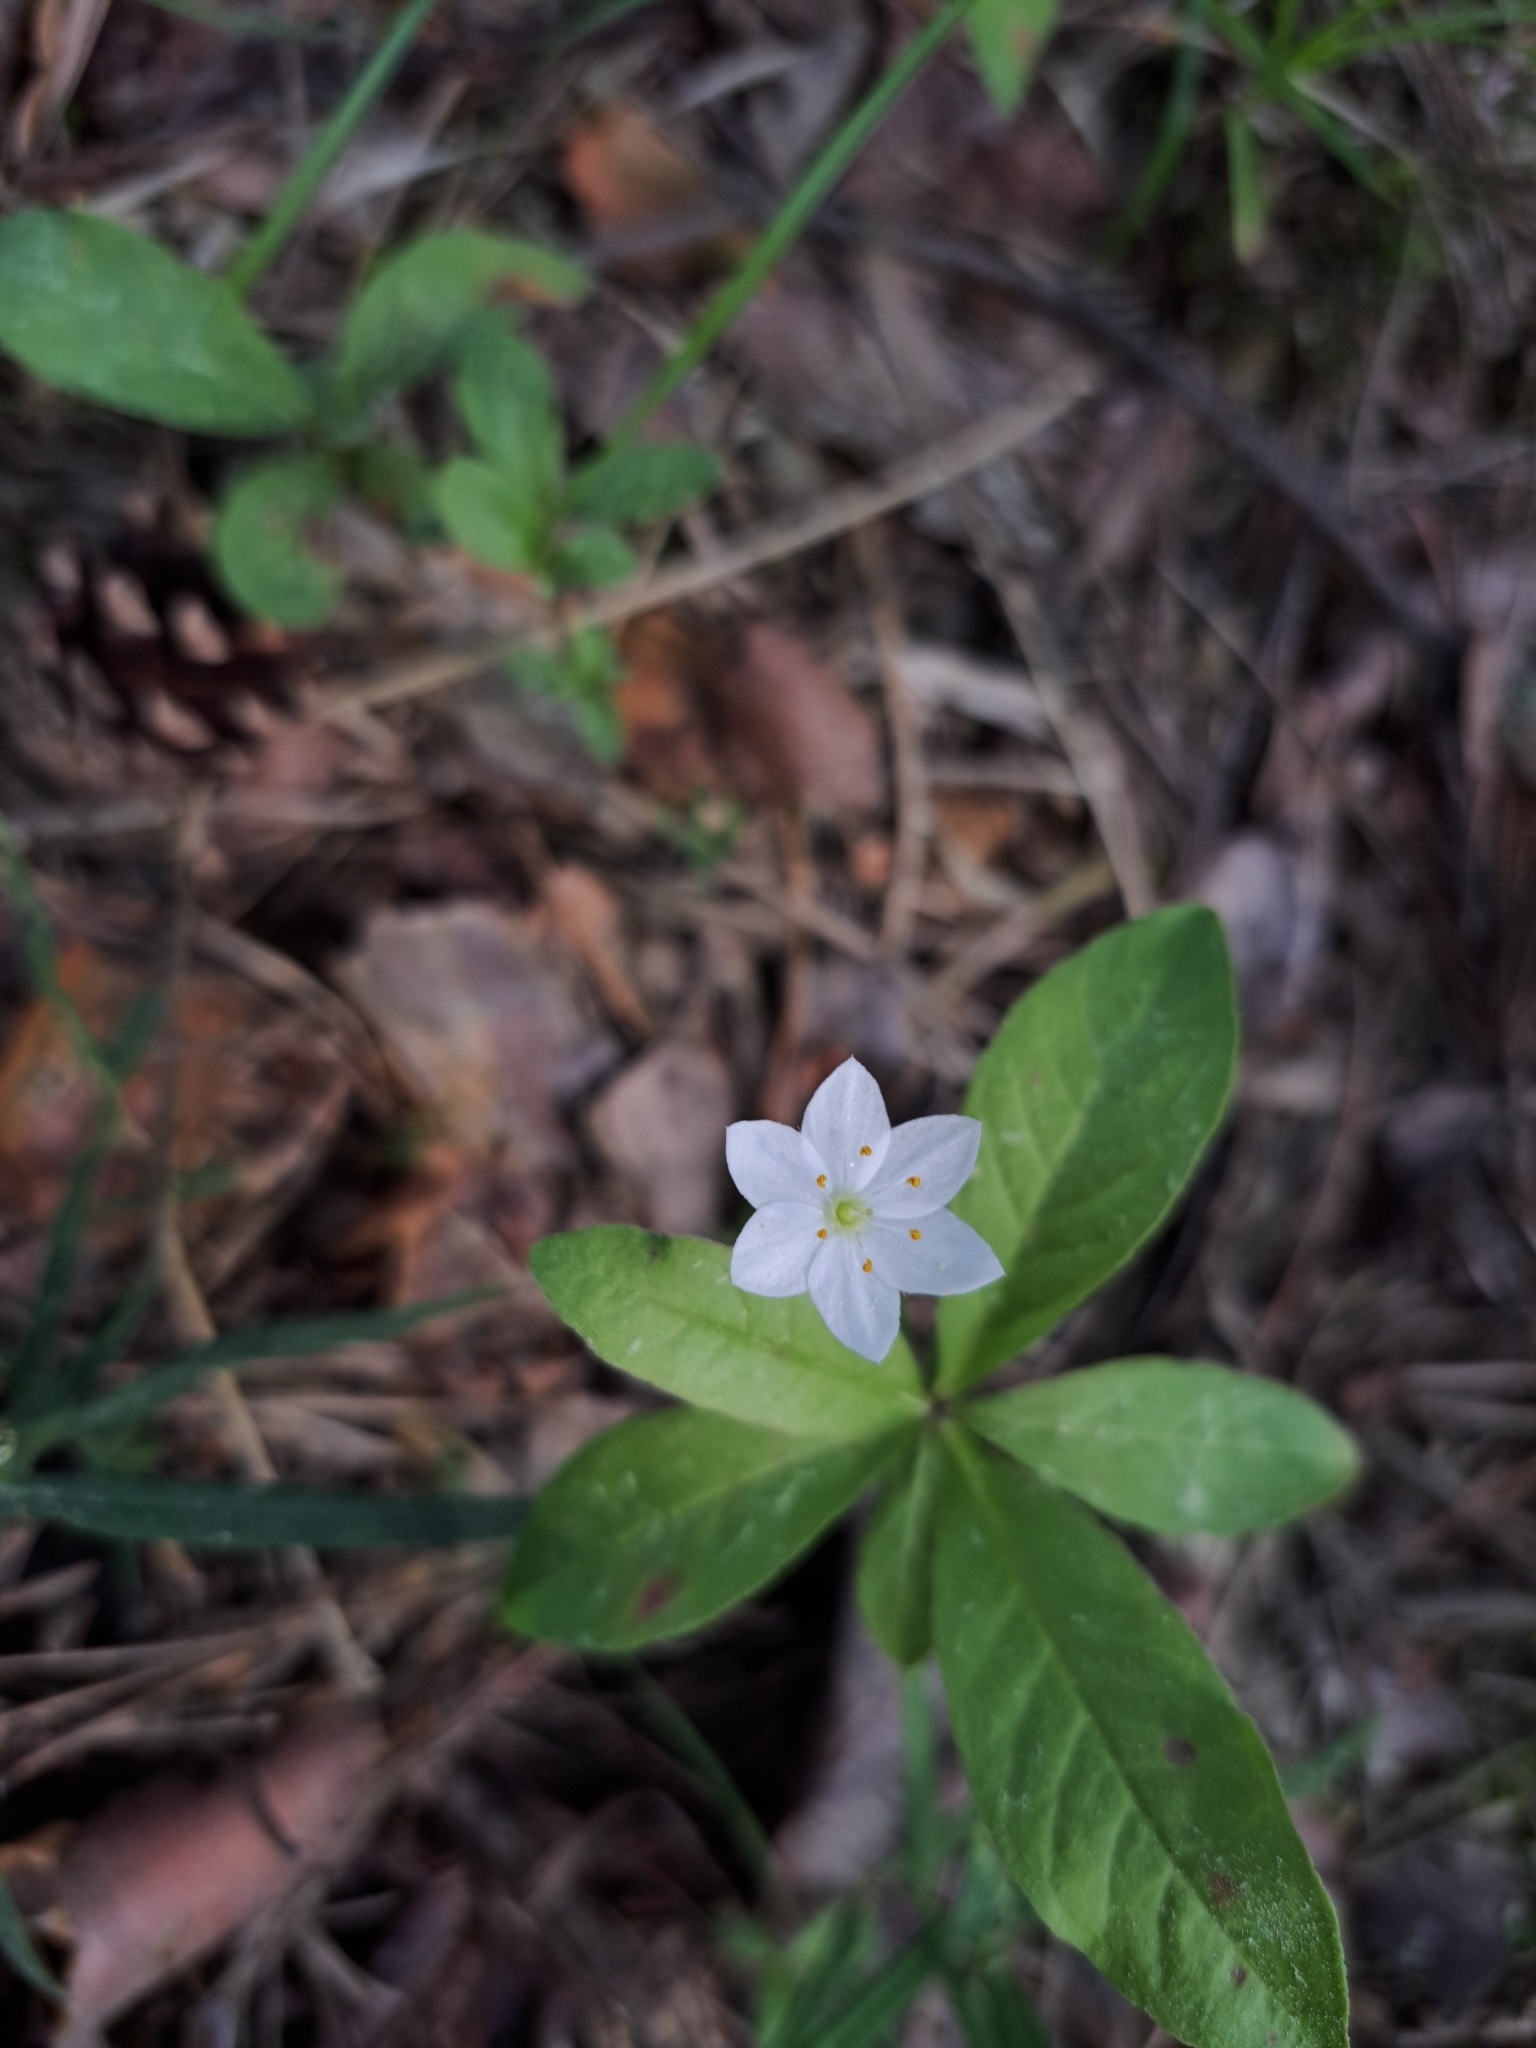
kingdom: Plantae
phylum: Tracheophyta
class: Magnoliopsida
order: Ericales
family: Primulaceae
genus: Lysimachia
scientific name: Lysimachia europaea
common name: Arctic starflower
